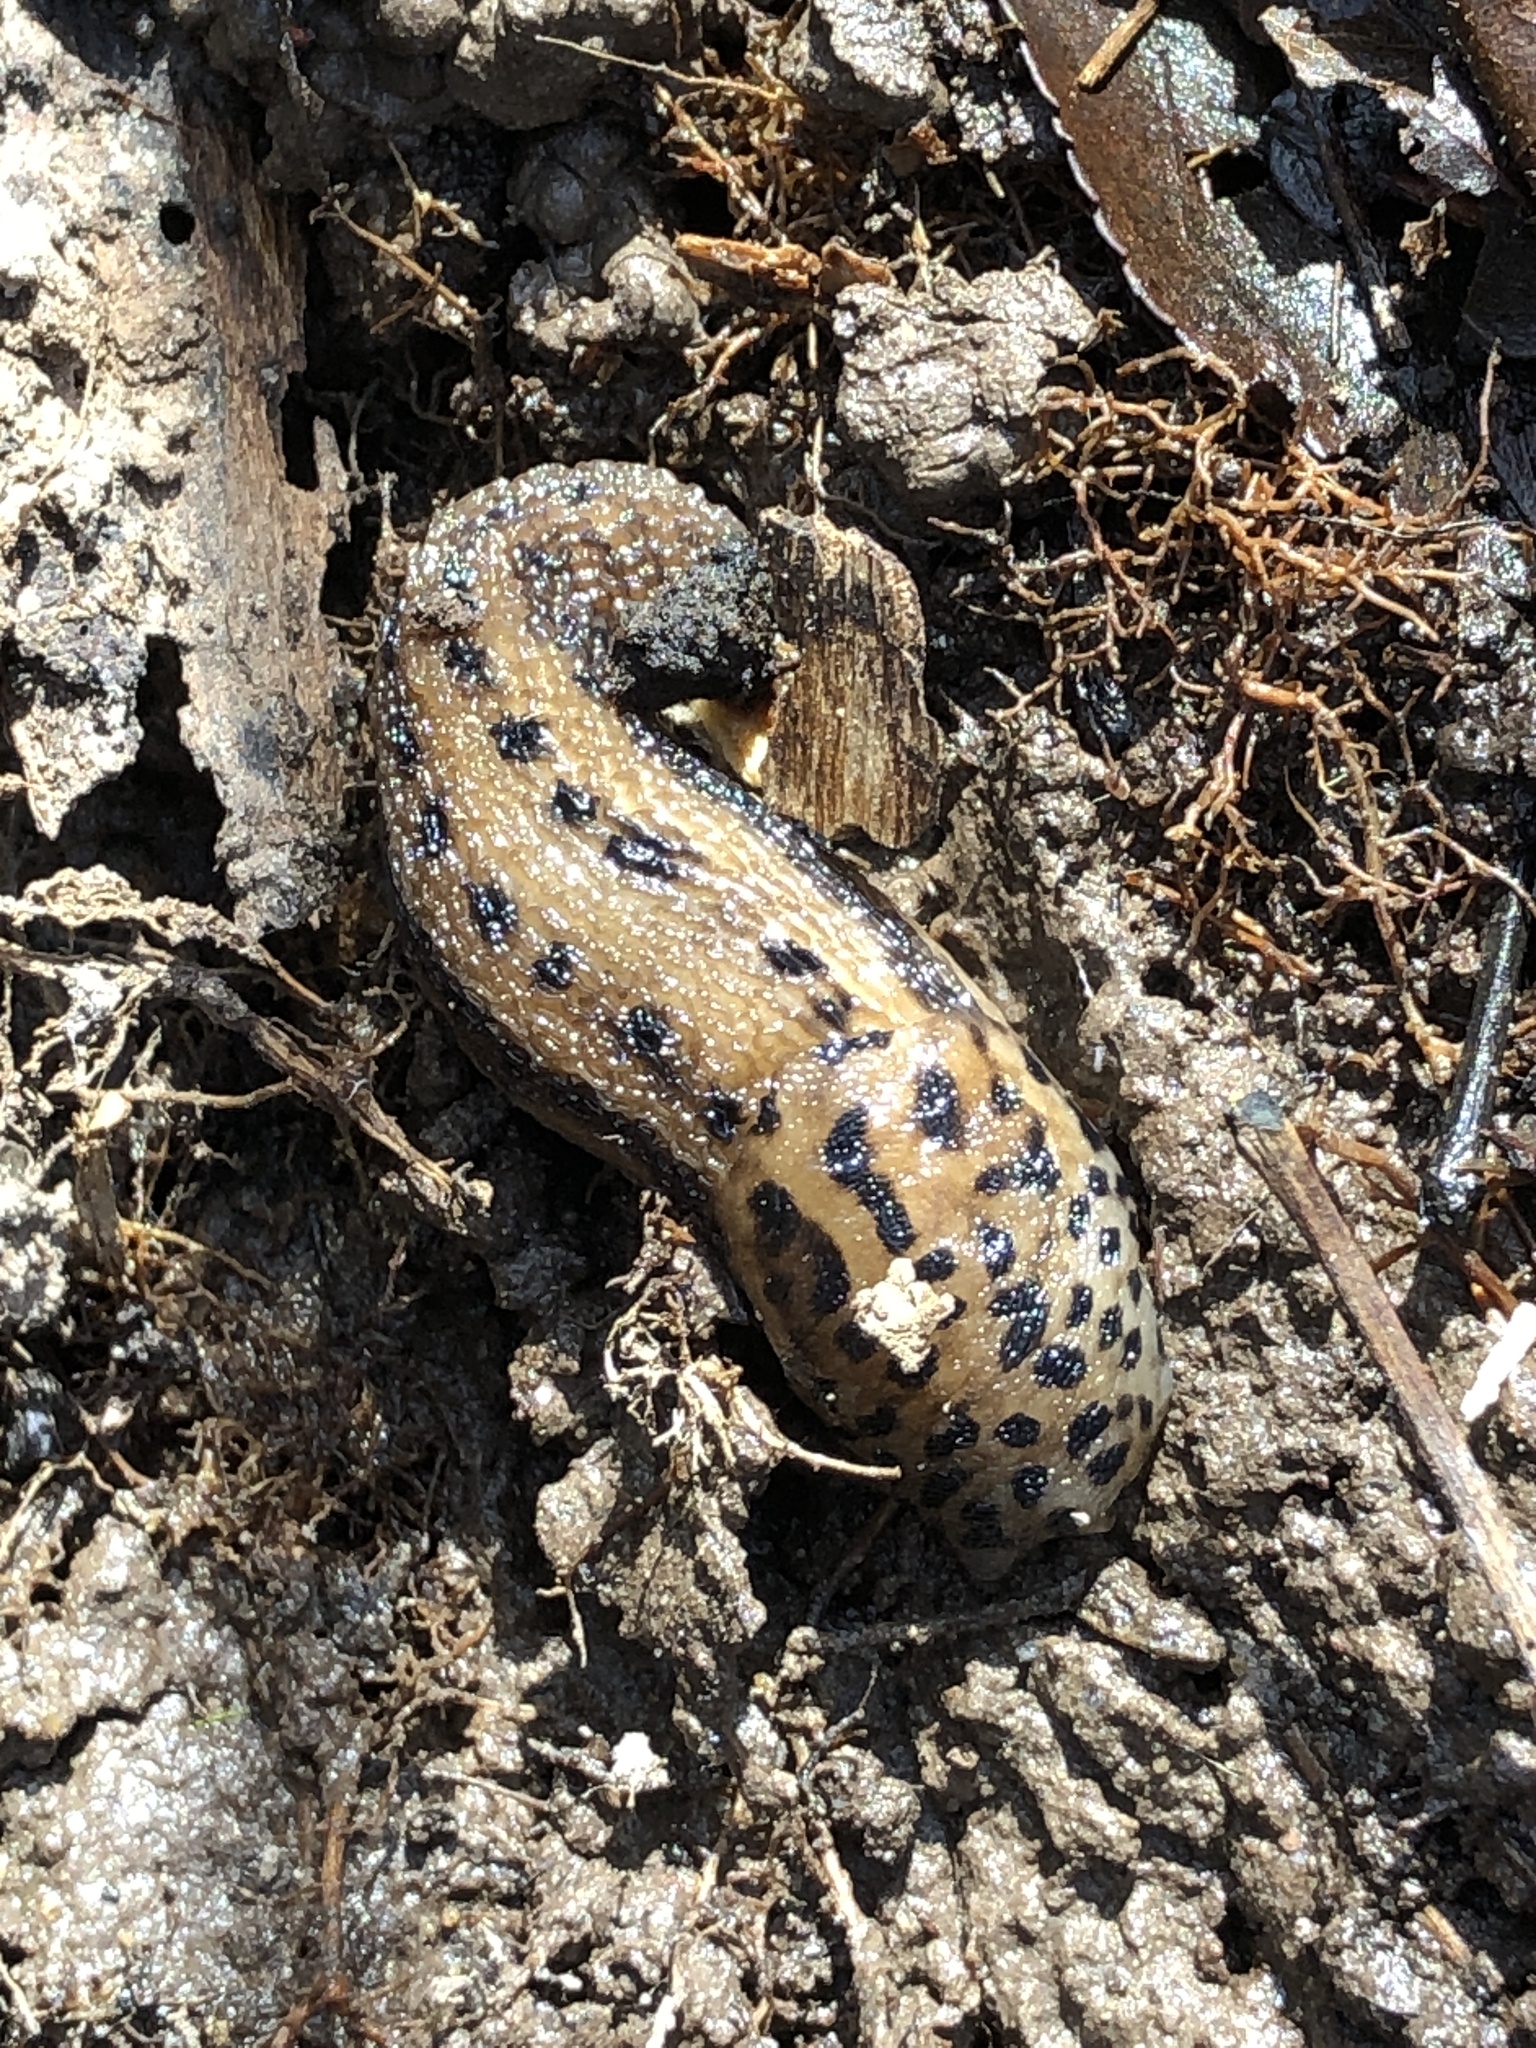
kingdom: Animalia
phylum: Mollusca
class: Gastropoda
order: Stylommatophora
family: Limacidae
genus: Limax
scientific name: Limax maximus
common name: Great grey slug
